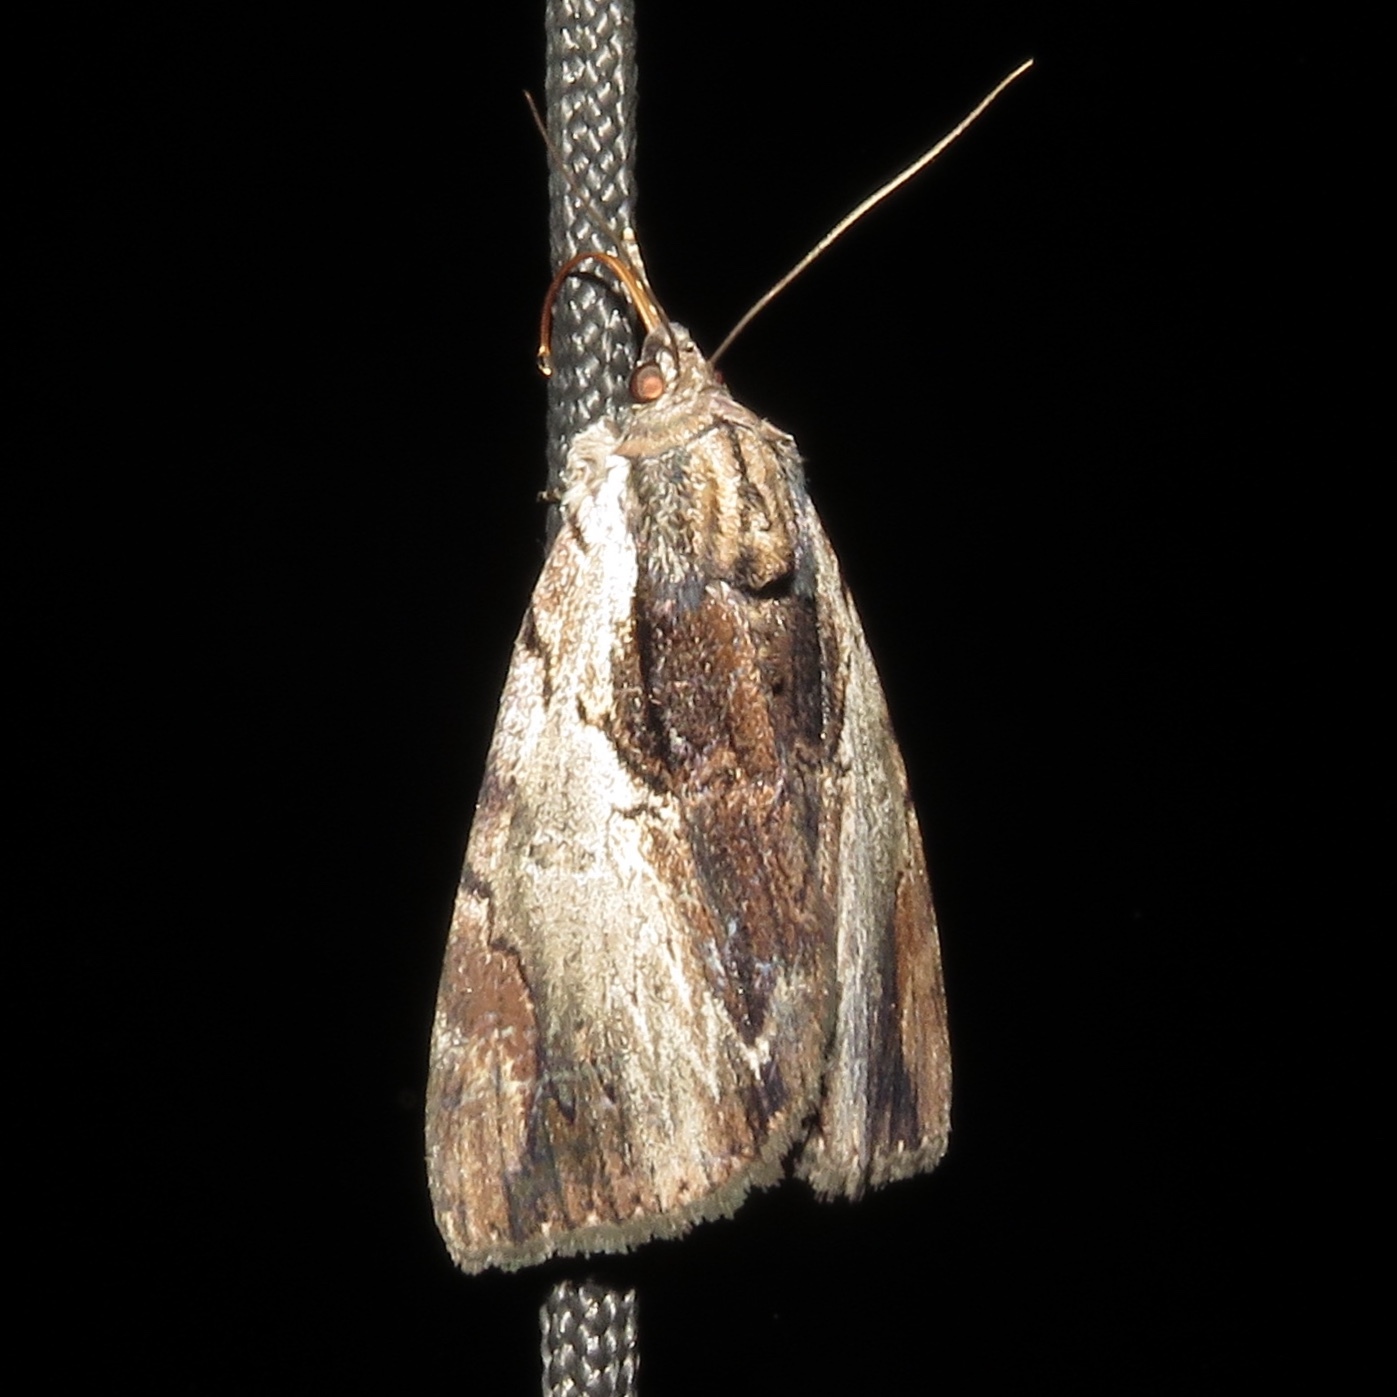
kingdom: Animalia
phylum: Arthropoda
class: Insecta
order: Lepidoptera
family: Erebidae
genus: Catocala
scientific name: Catocala ultronia
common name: Ultronia underwing
